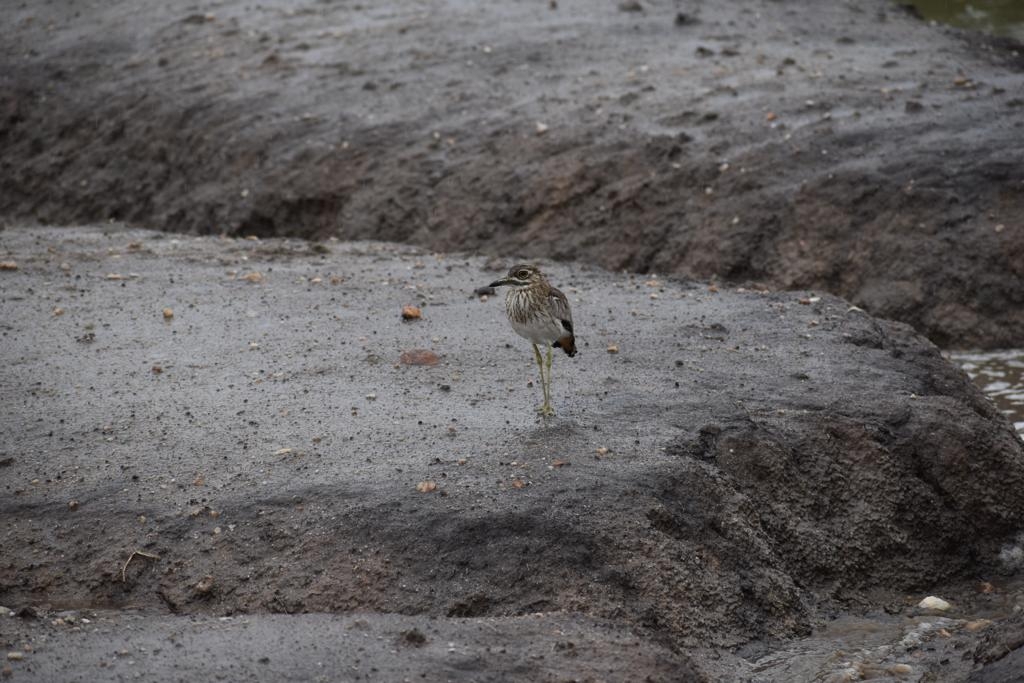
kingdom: Animalia
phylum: Chordata
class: Aves
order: Charadriiformes
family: Burhinidae
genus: Burhinus
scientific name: Burhinus vermiculatus
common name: Water thick-knee
